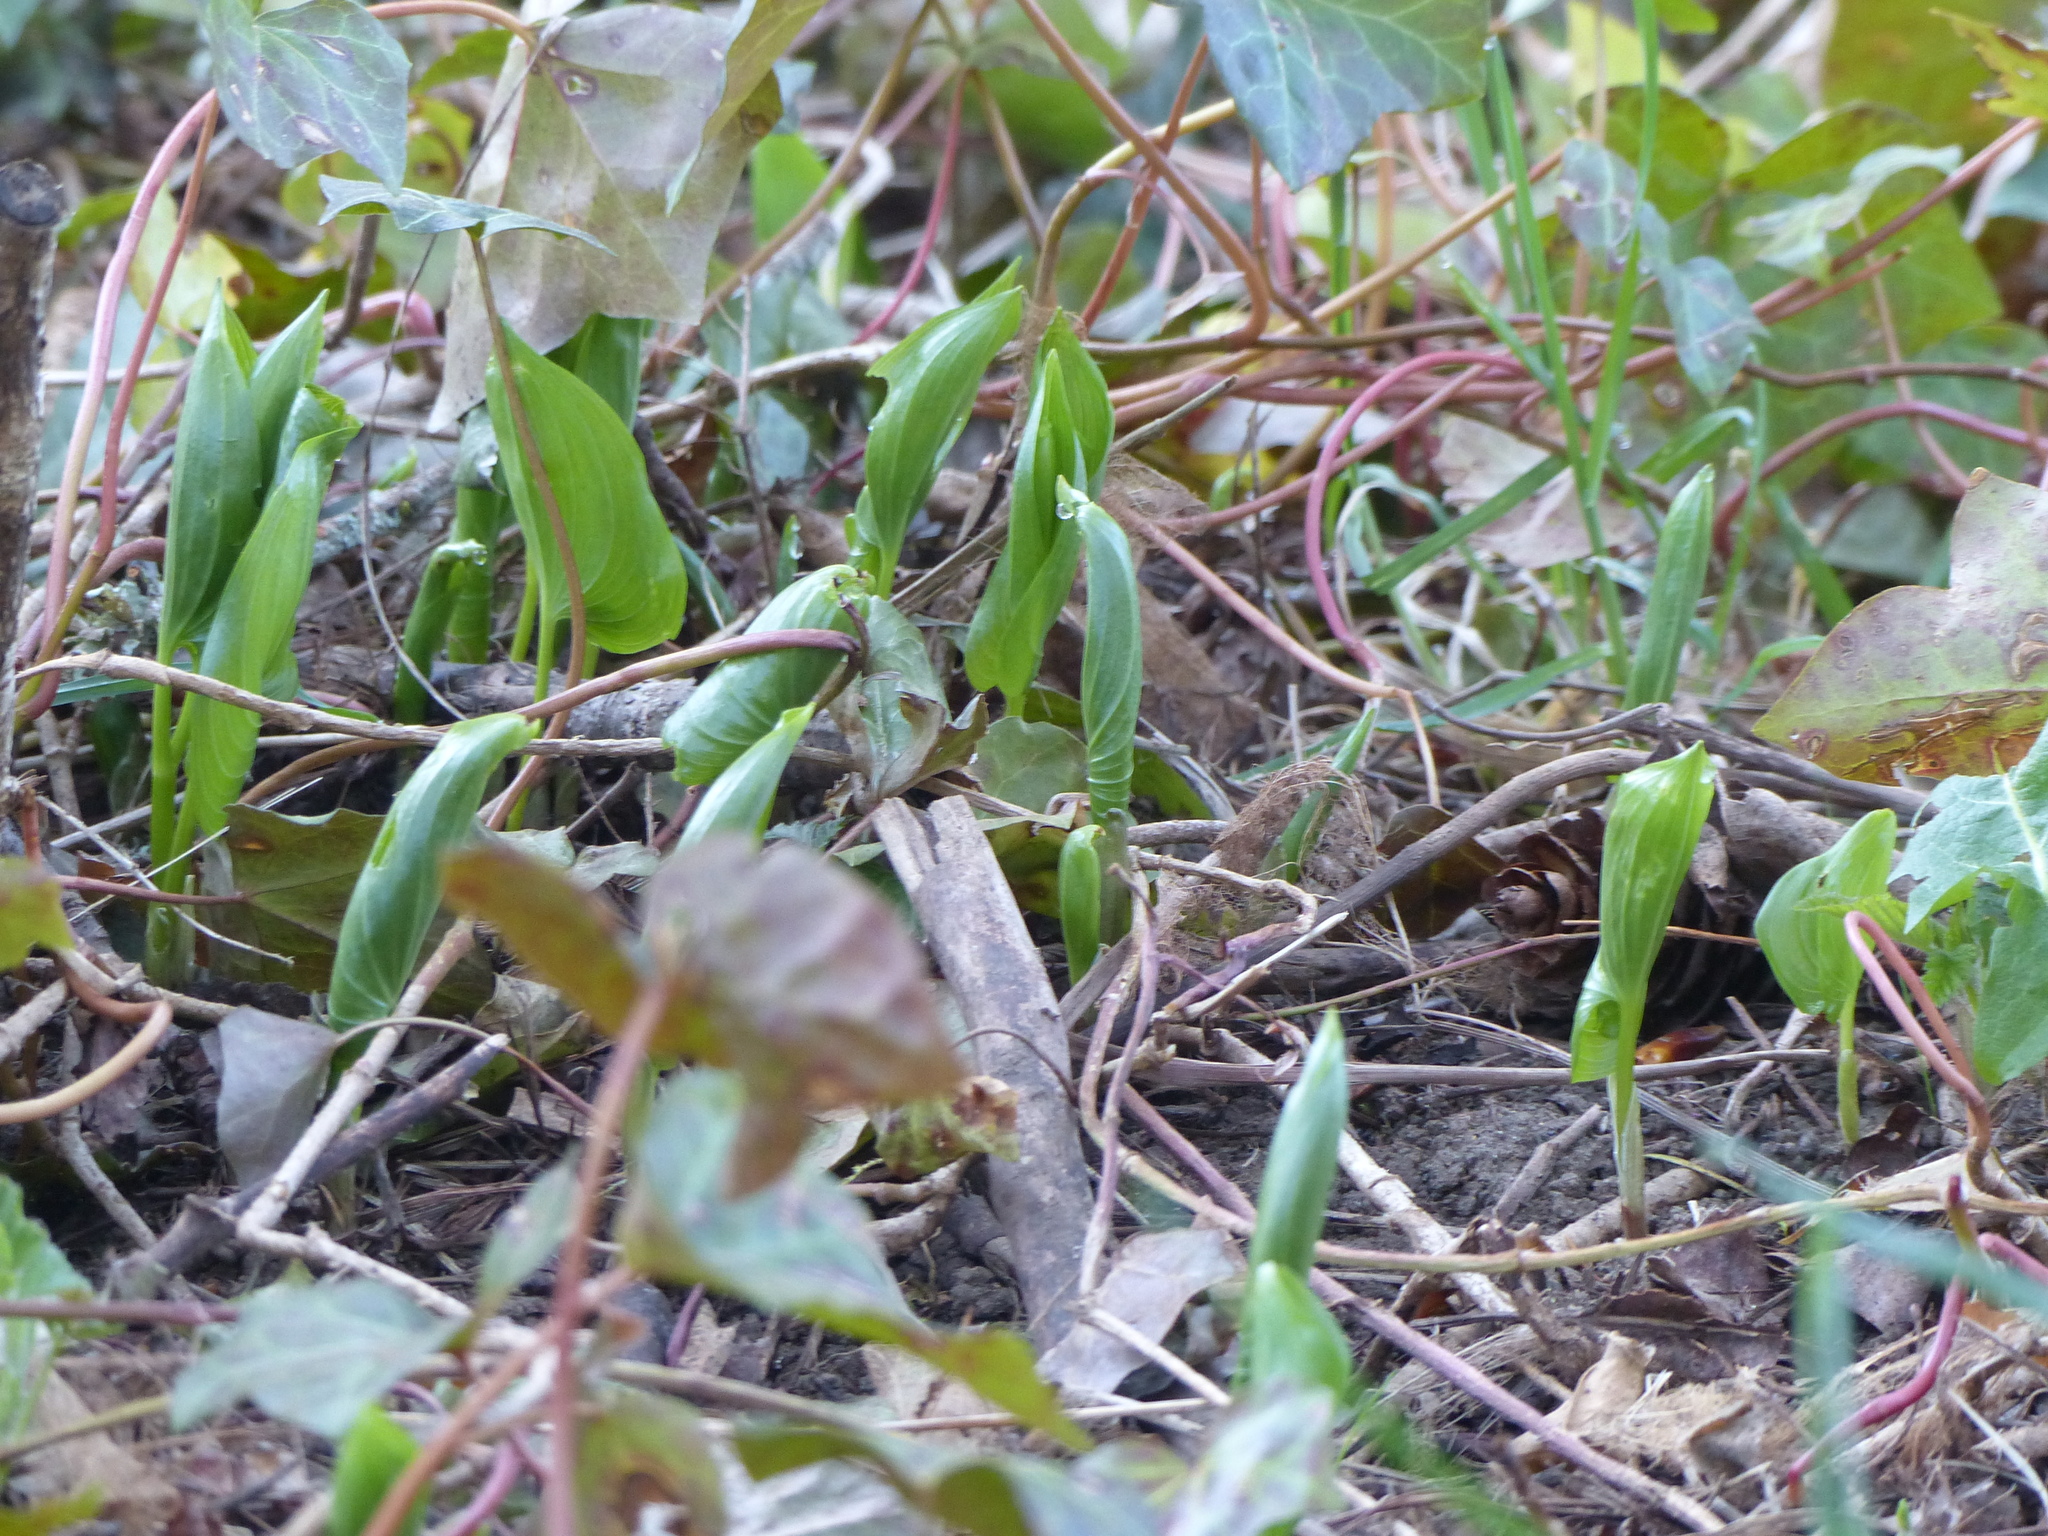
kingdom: Plantae
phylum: Tracheophyta
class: Liliopsida
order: Asparagales
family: Asparagaceae
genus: Maianthemum
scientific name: Maianthemum dilatatum
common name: False lily-of-the-valley
